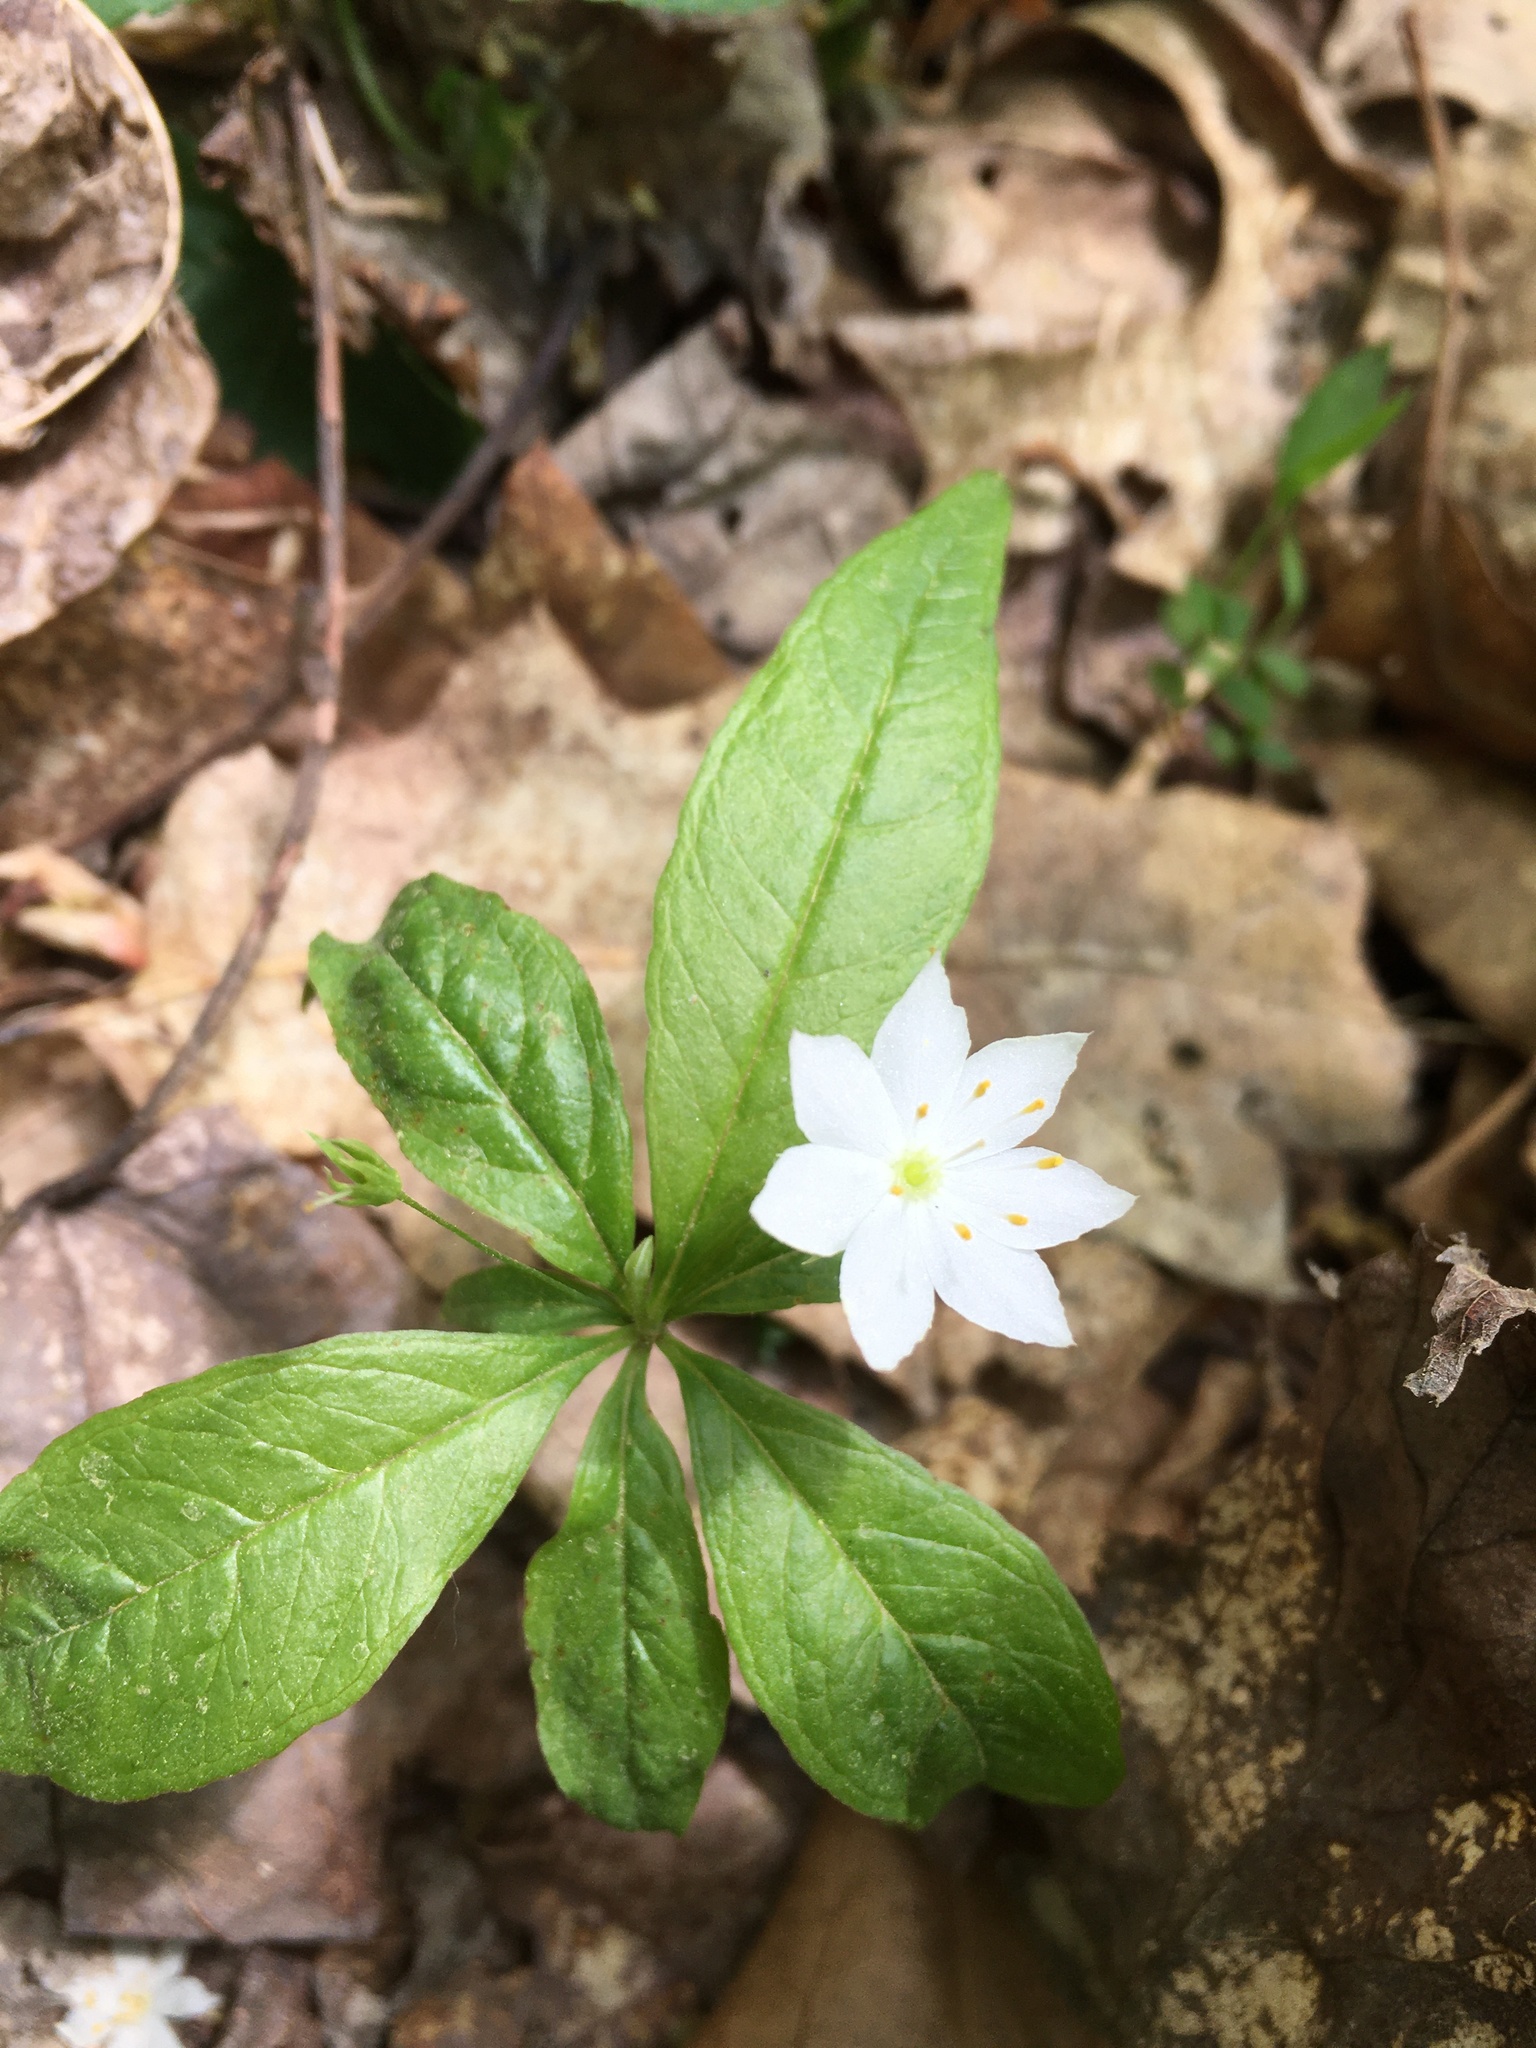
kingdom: Plantae
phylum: Tracheophyta
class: Magnoliopsida
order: Ericales
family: Primulaceae
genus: Lysimachia
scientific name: Lysimachia borealis
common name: American starflower
